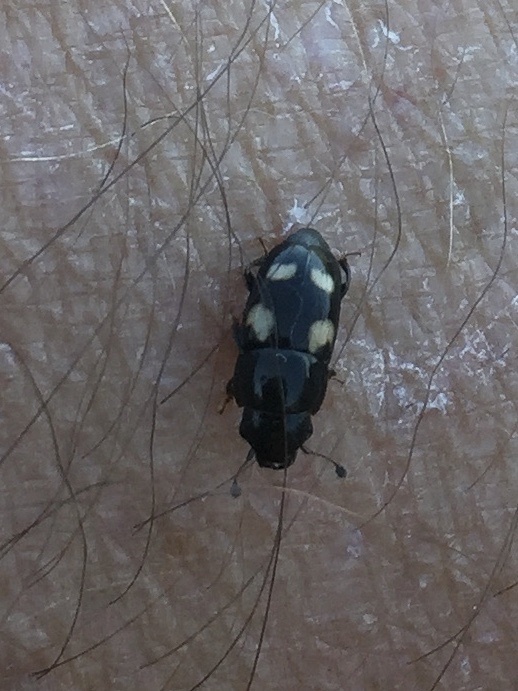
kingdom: Animalia
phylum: Arthropoda
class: Insecta
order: Coleoptera
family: Nitidulidae
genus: Glischrochilus
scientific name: Glischrochilus quadrisignatus
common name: Picnic beetle
